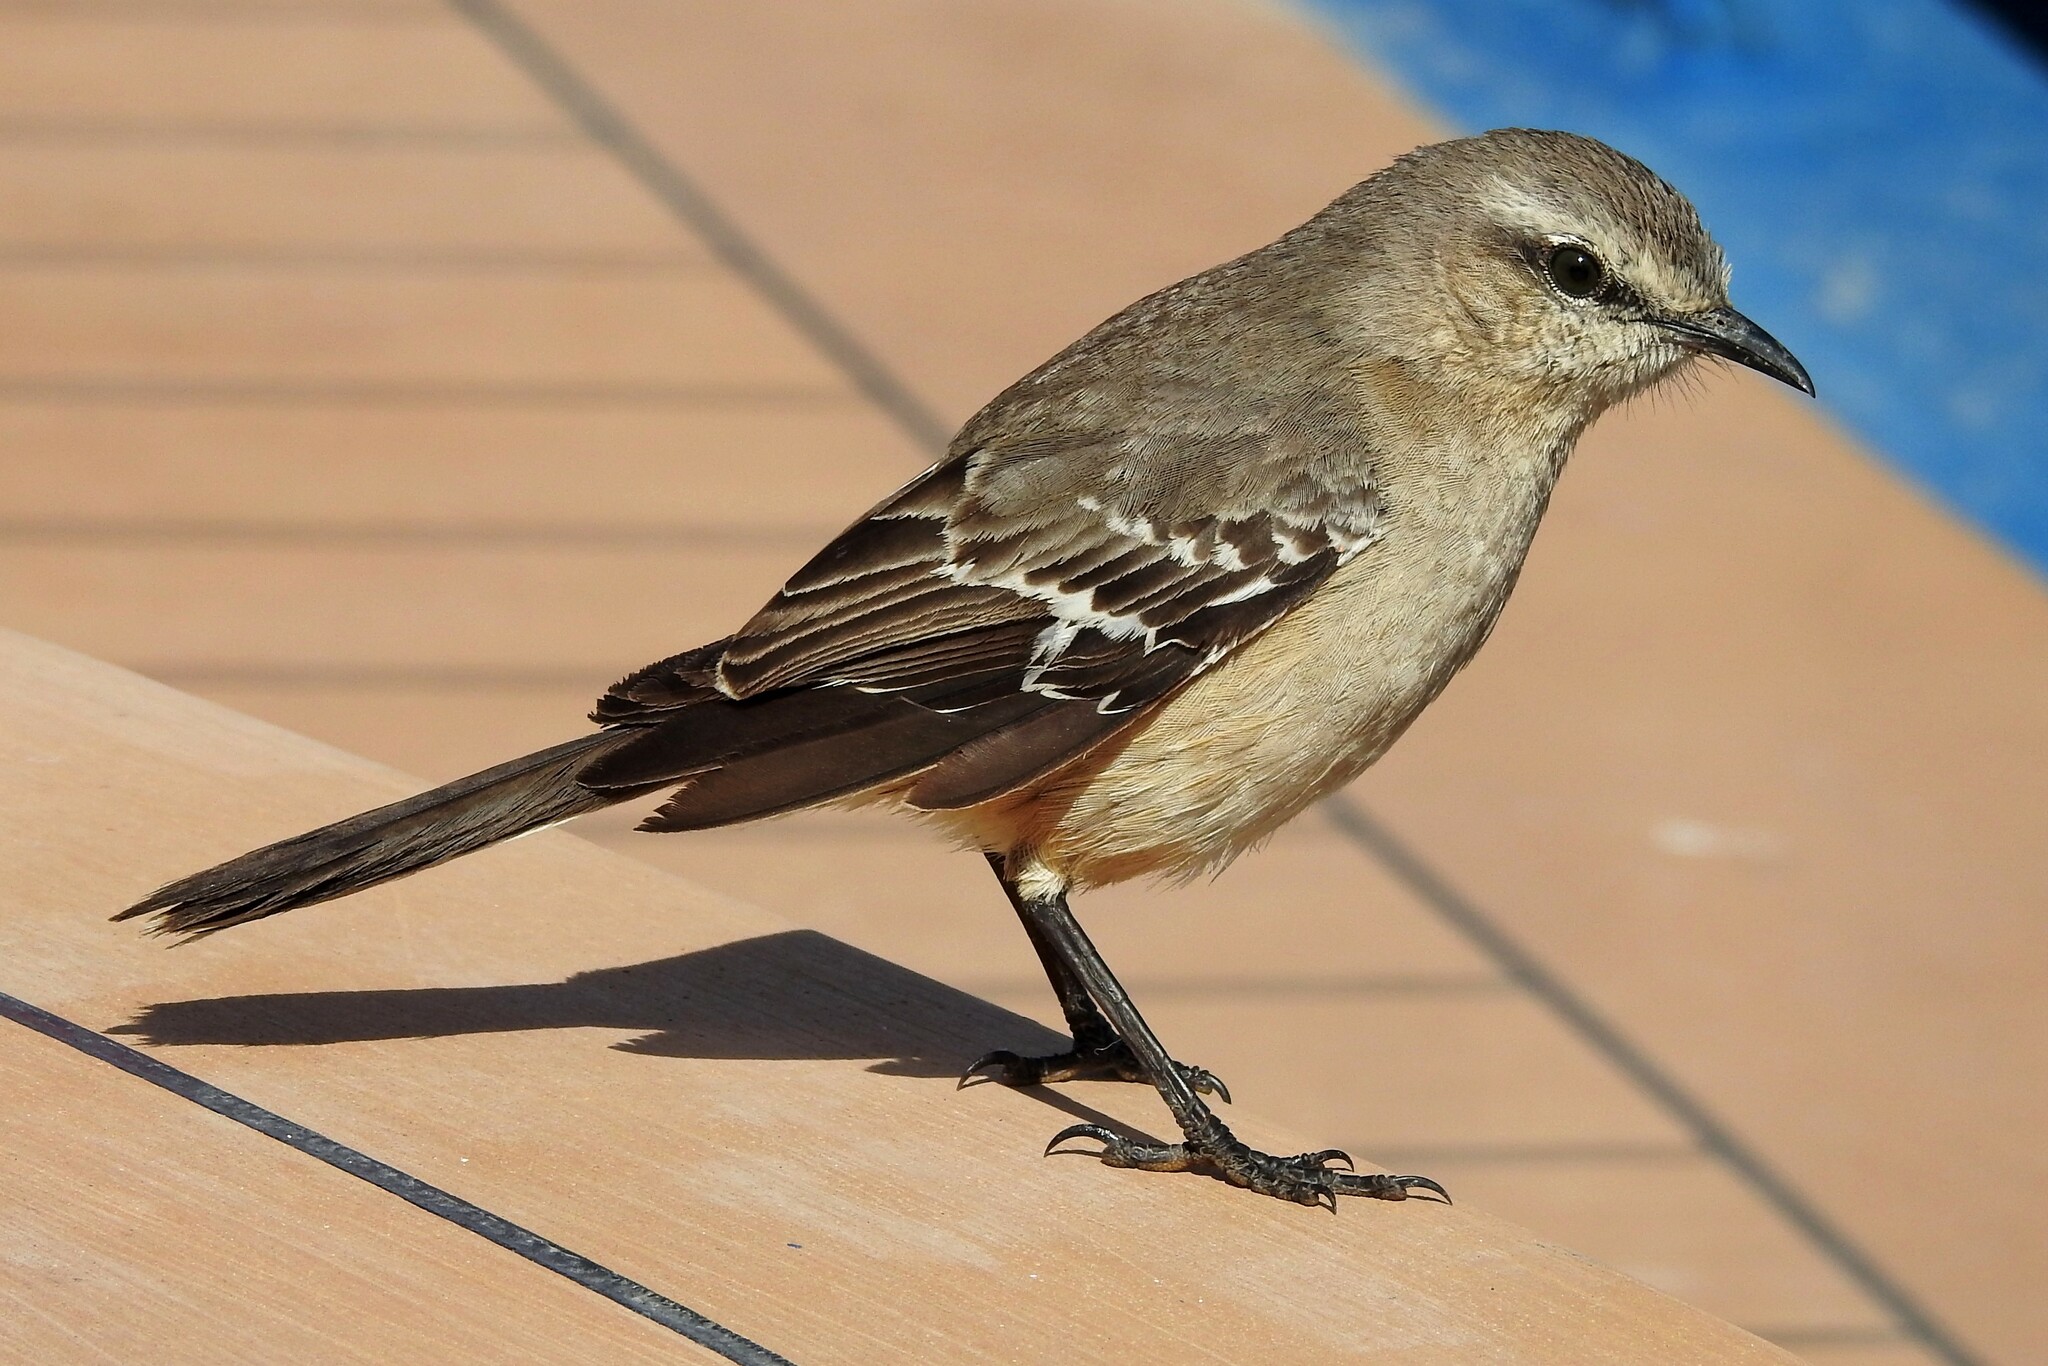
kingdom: Animalia
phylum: Chordata
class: Aves
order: Passeriformes
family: Mimidae
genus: Mimus
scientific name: Mimus patagonicus
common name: Patagonian mockingbird
